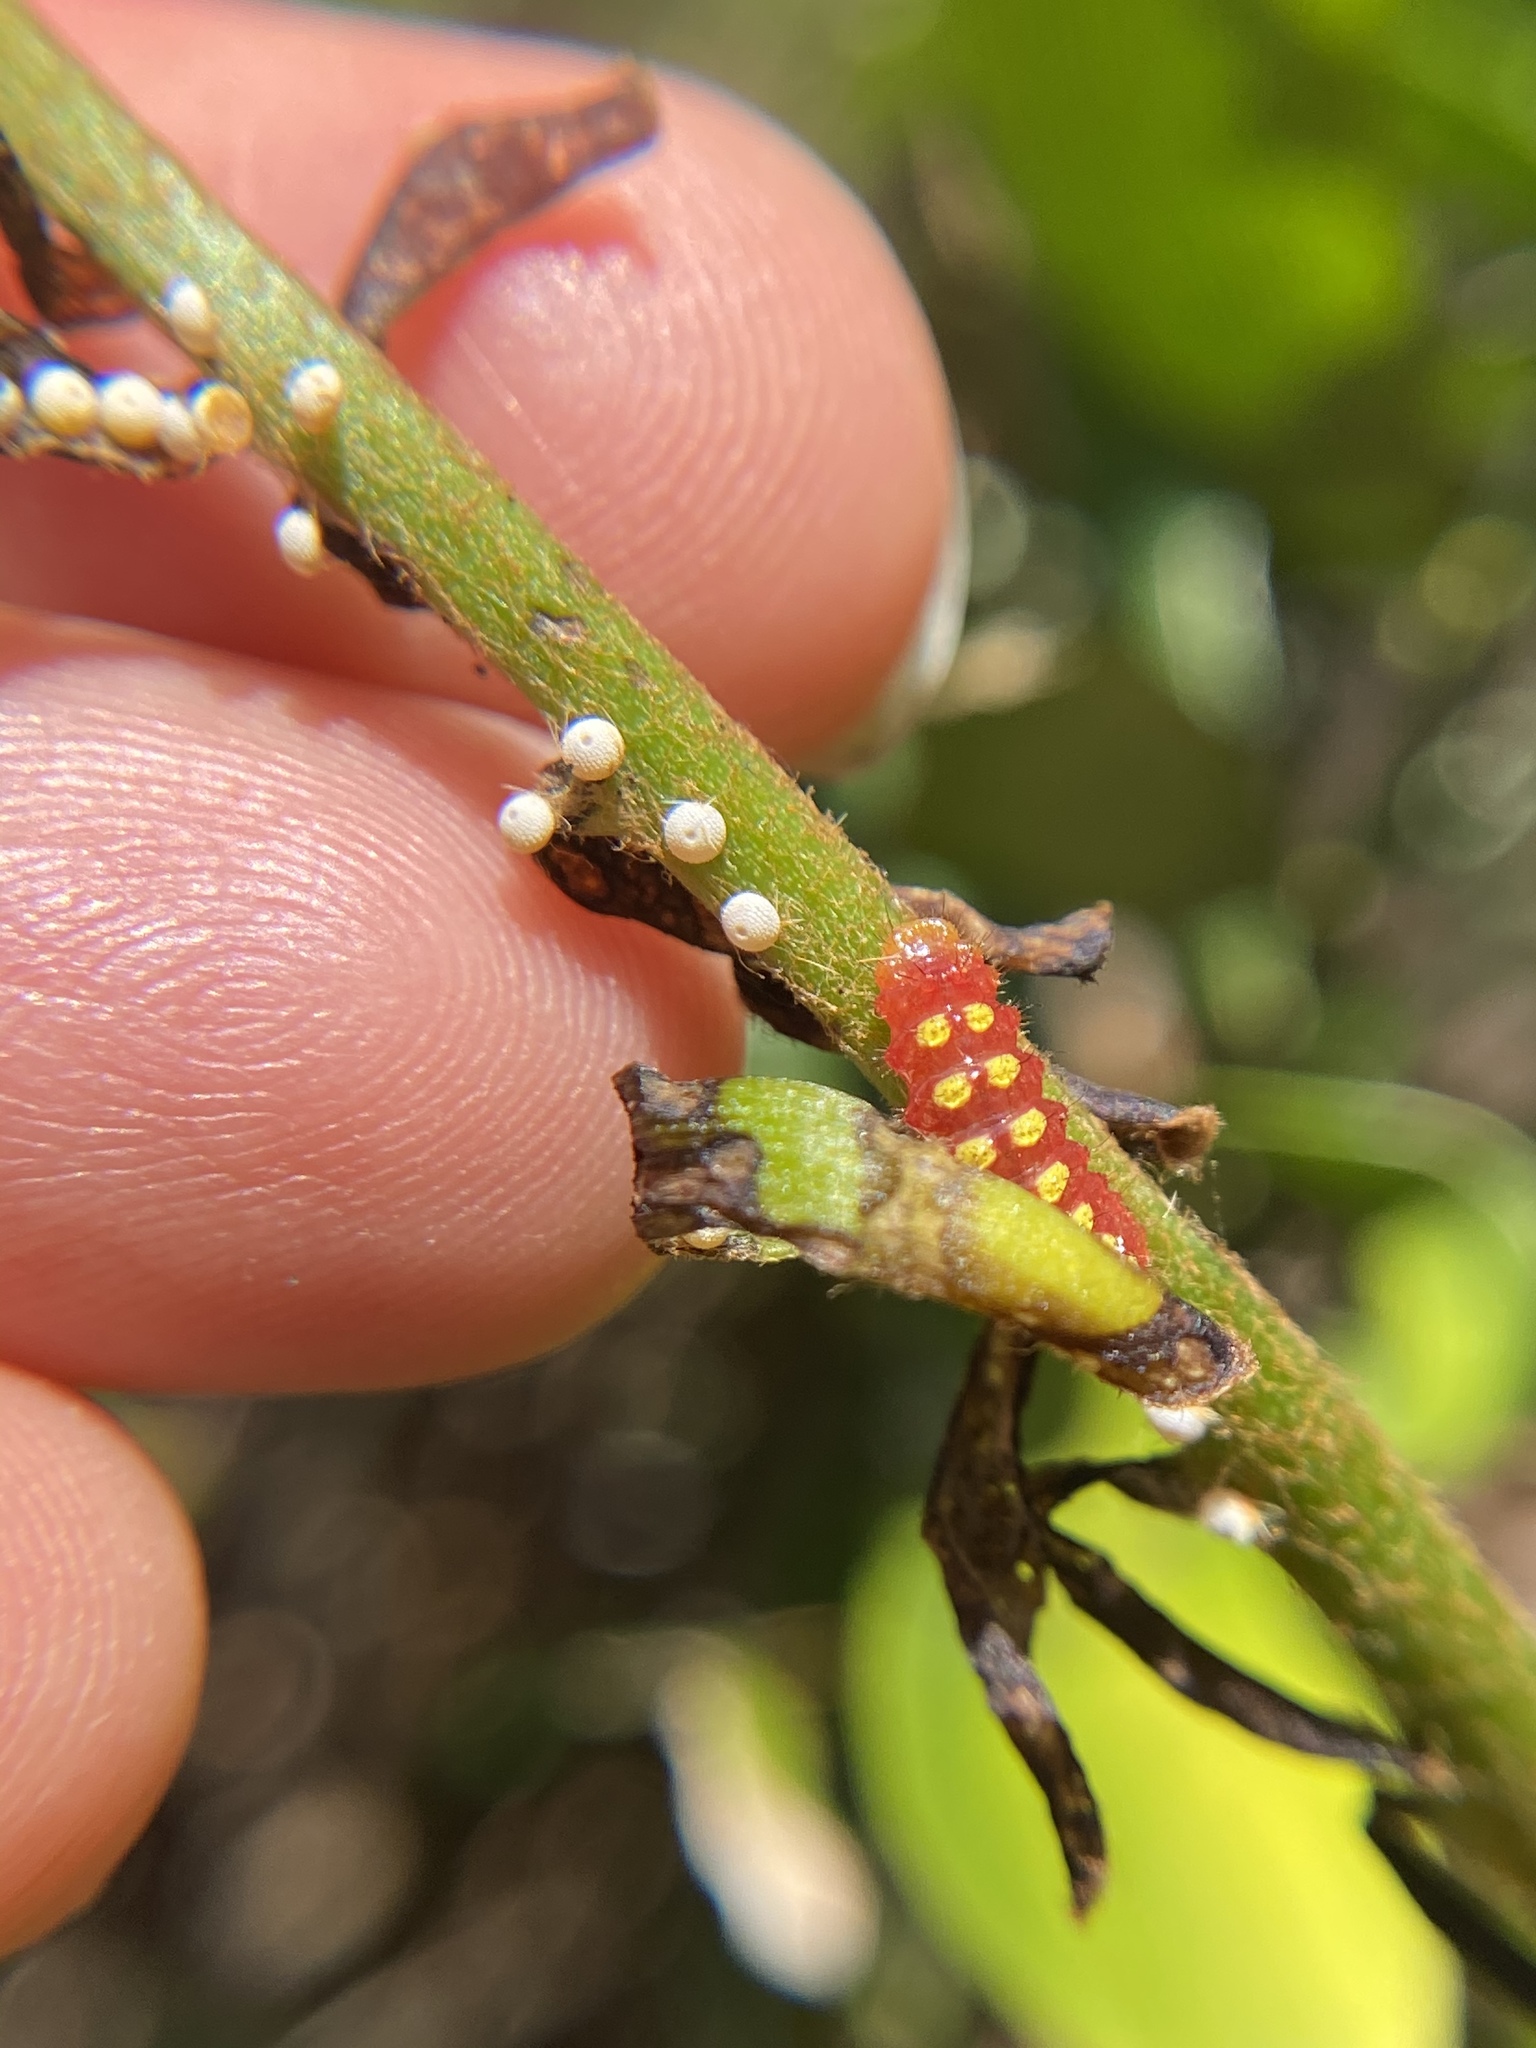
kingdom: Animalia
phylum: Arthropoda
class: Insecta
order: Lepidoptera
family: Lycaenidae
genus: Eumaeus
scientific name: Eumaeus atala
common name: Atala
